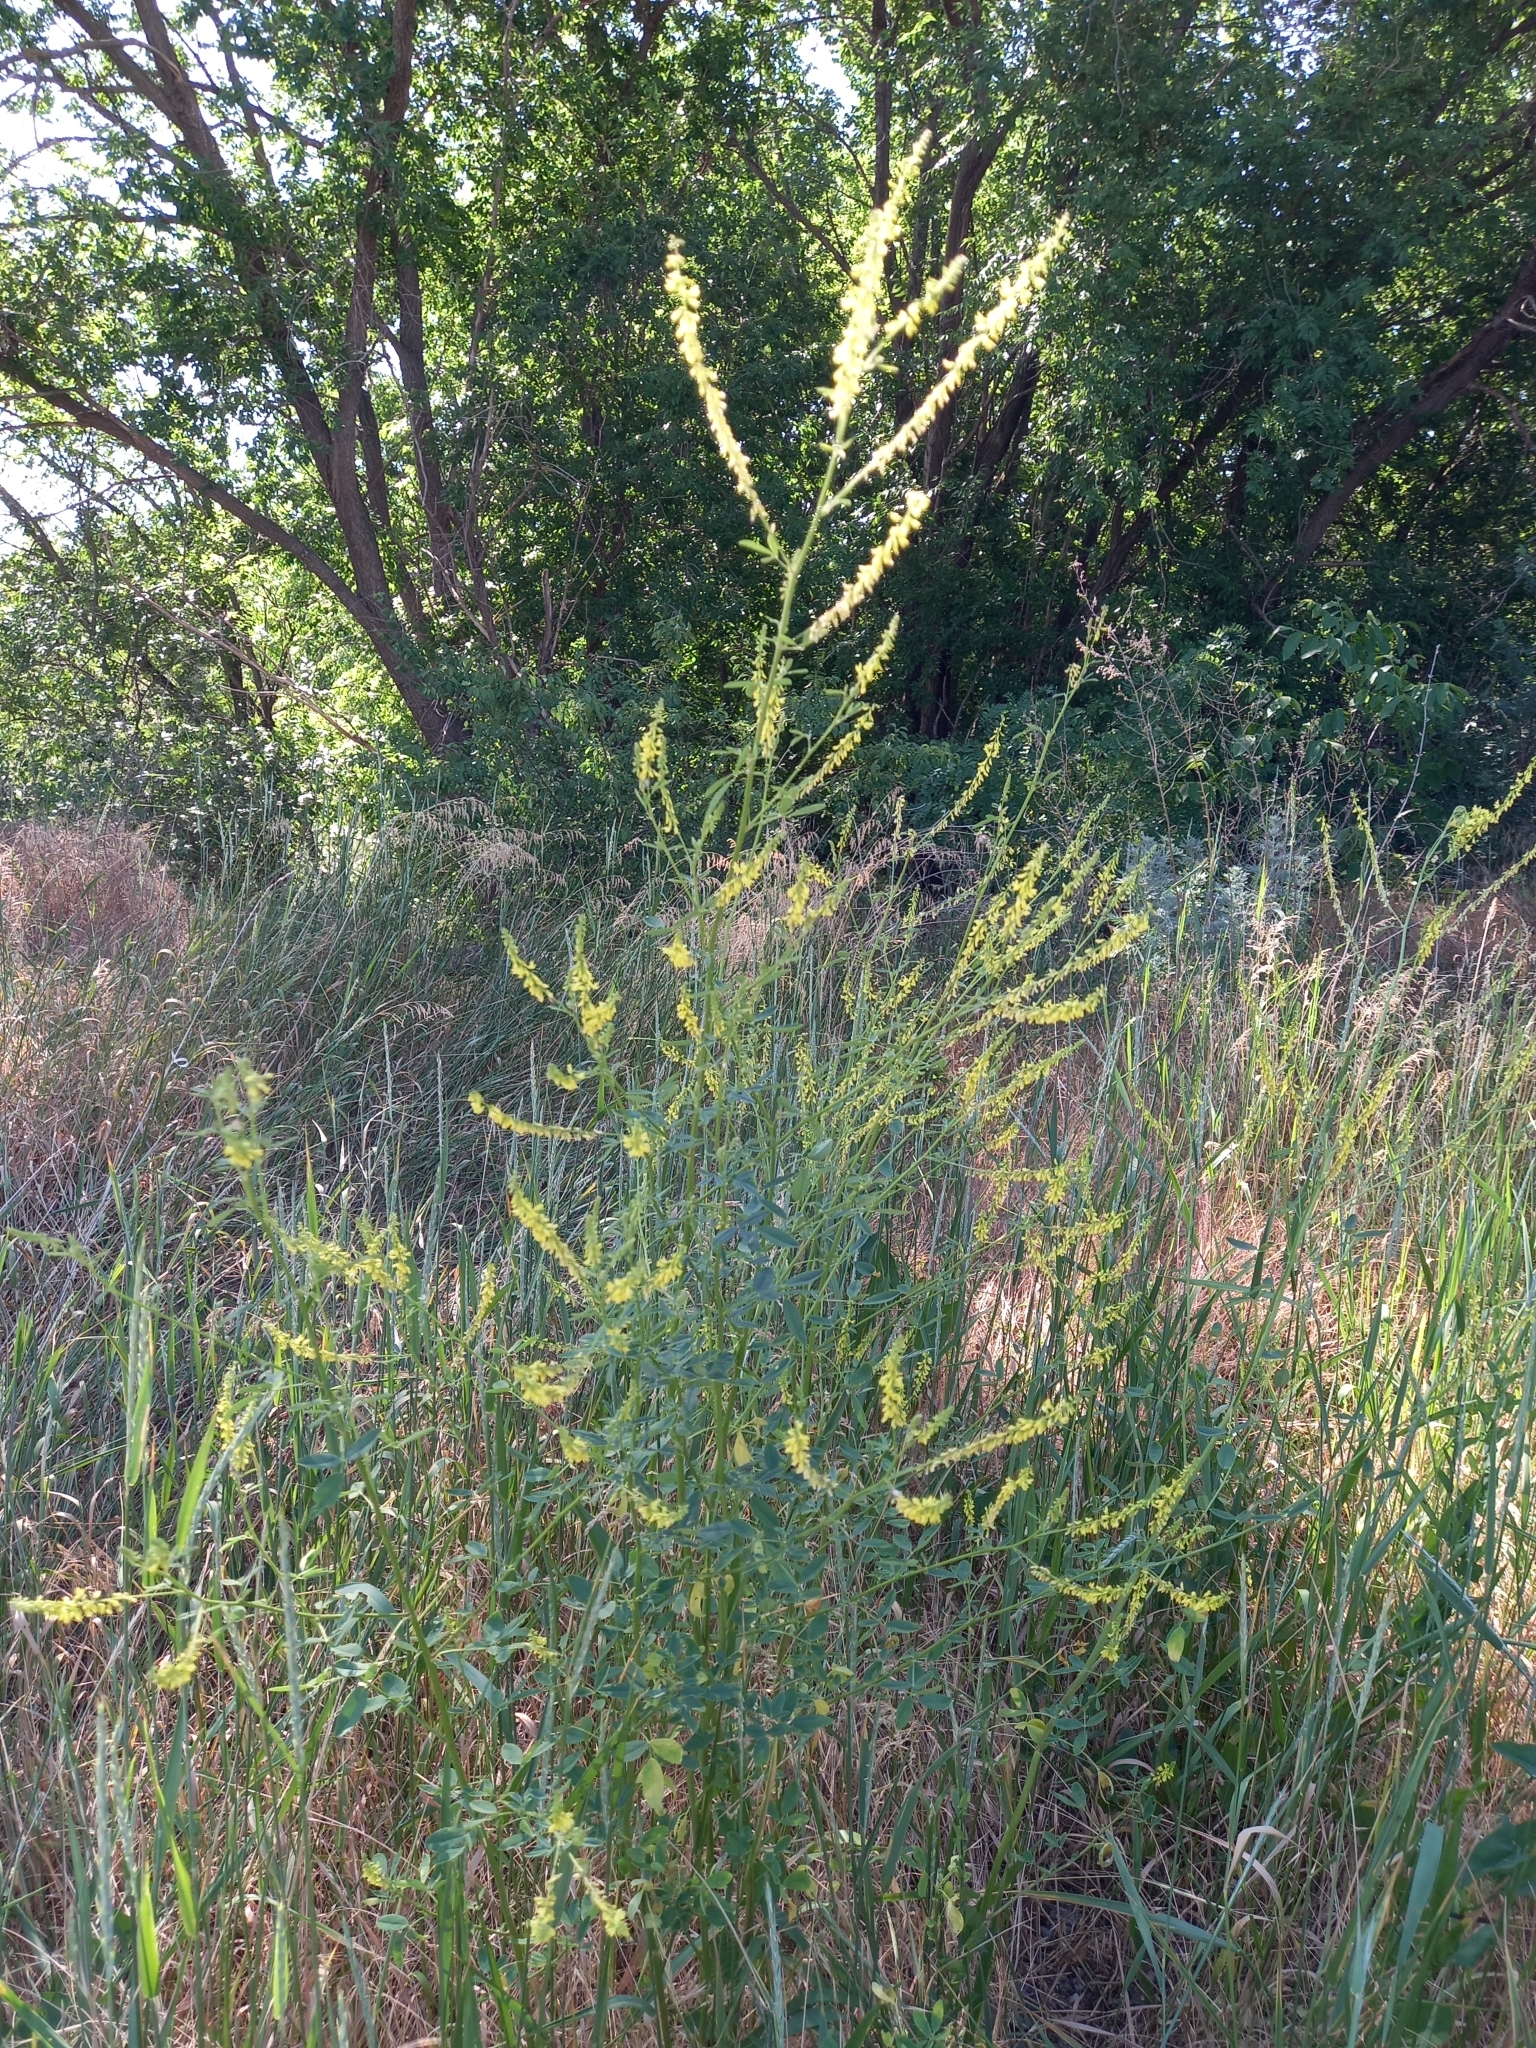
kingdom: Plantae
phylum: Tracheophyta
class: Magnoliopsida
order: Fabales
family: Fabaceae
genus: Melilotus
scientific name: Melilotus officinalis
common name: Sweetclover
